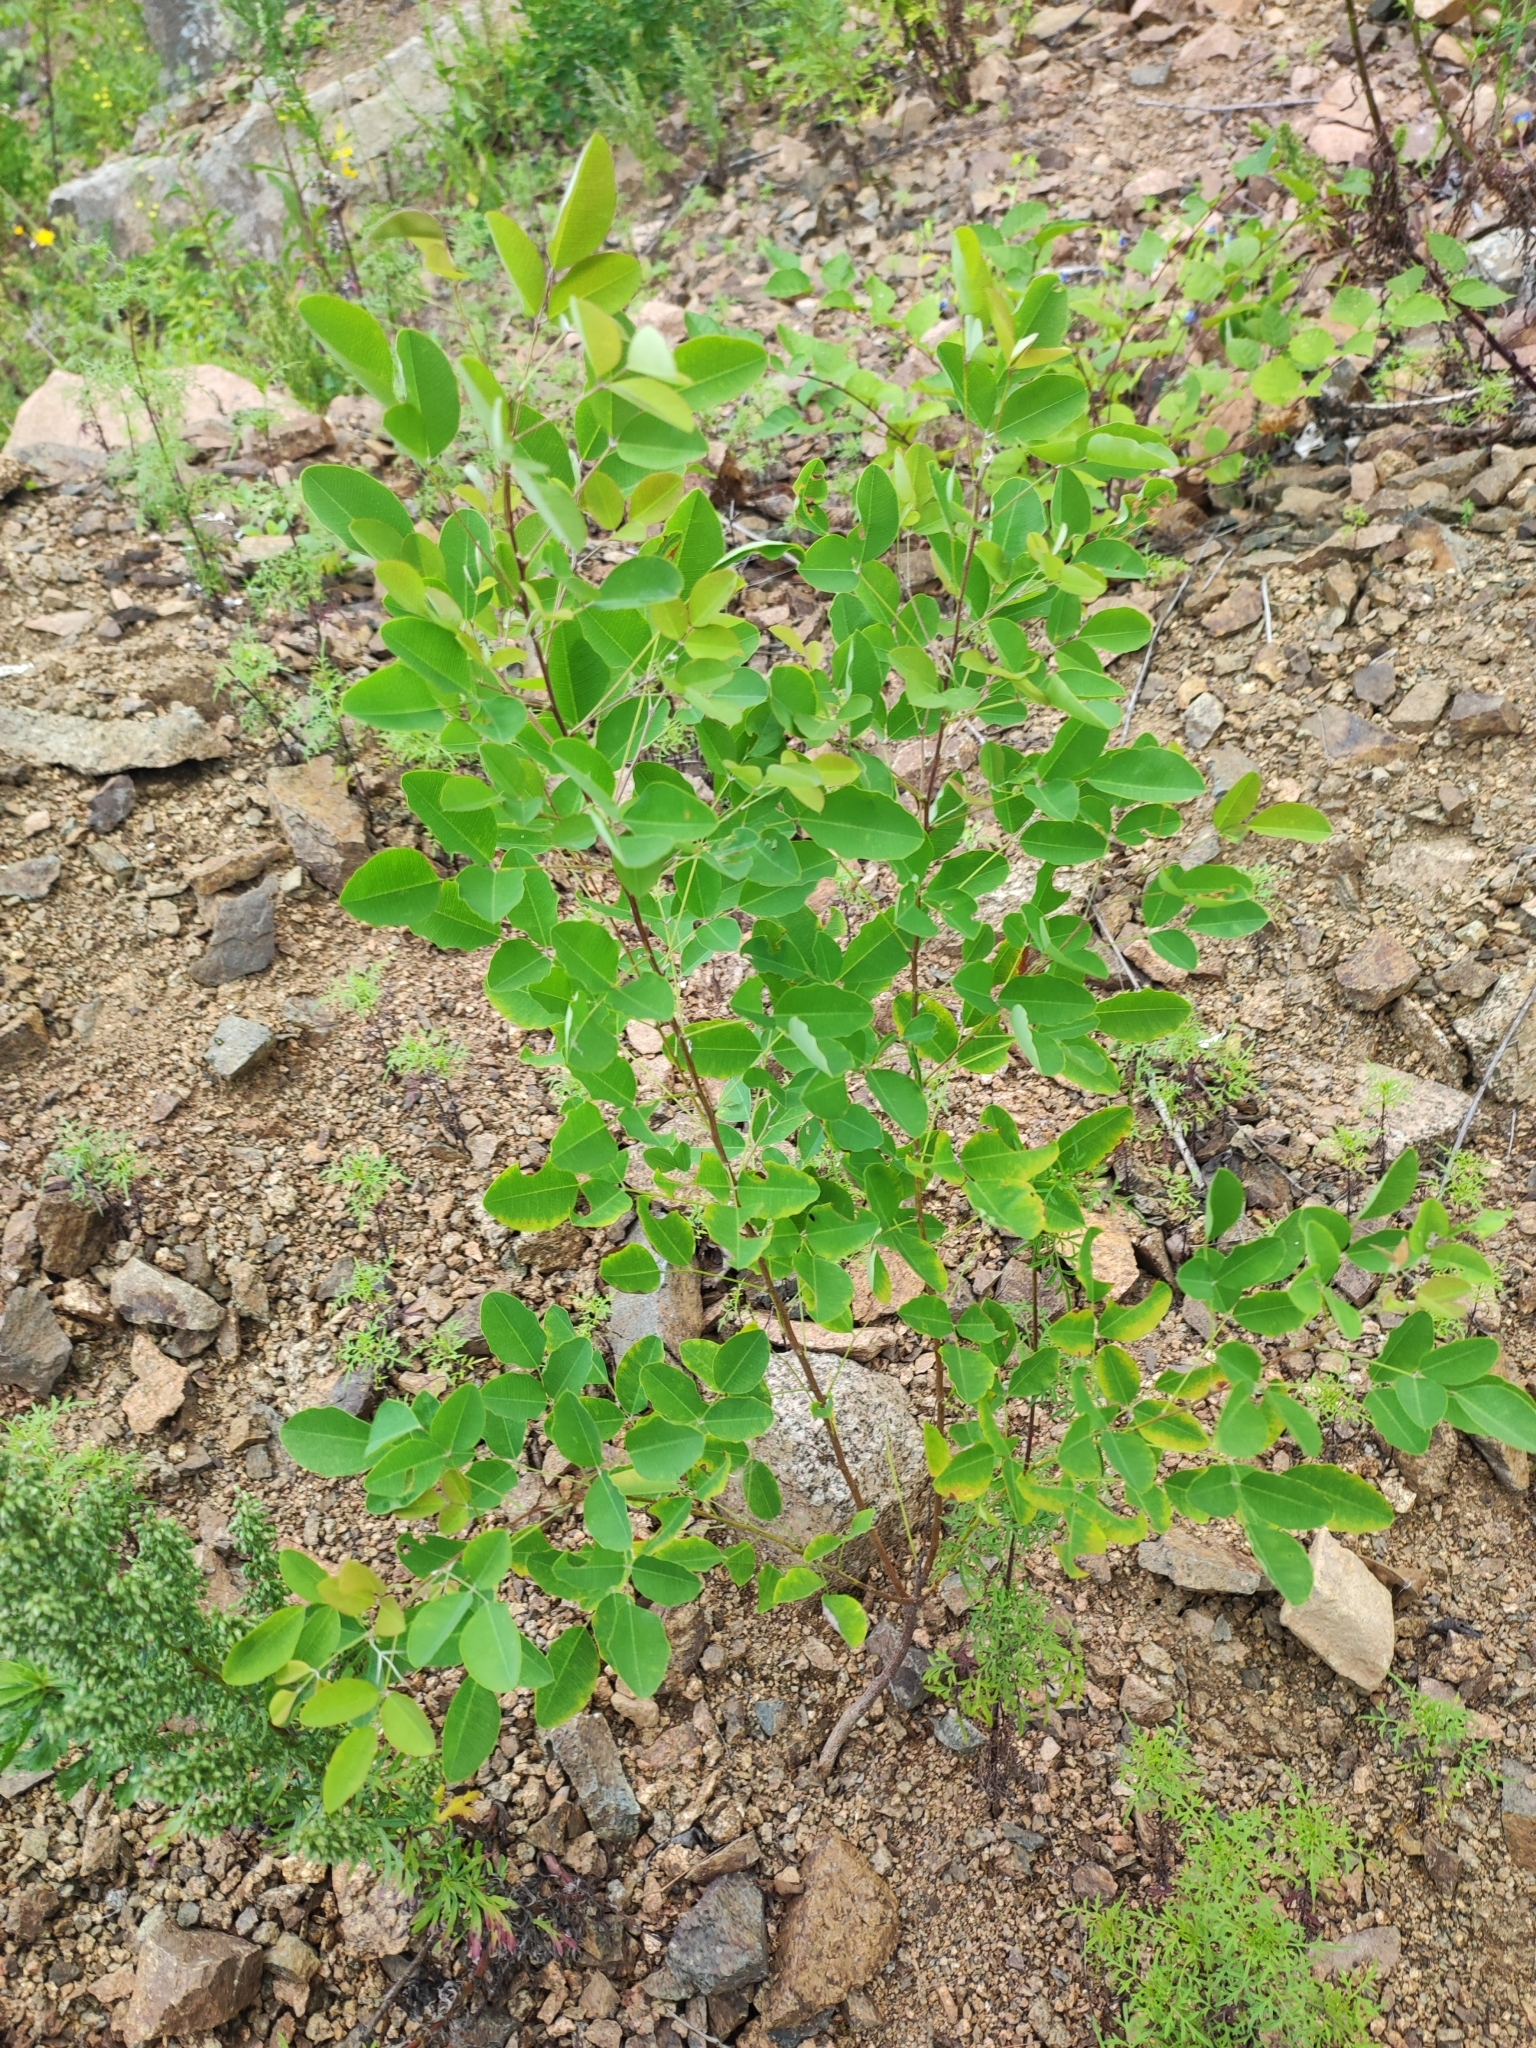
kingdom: Plantae
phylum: Tracheophyta
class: Magnoliopsida
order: Fabales
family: Fabaceae
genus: Lespedeza
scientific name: Lespedeza bicolor
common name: Shrub lespedeza
